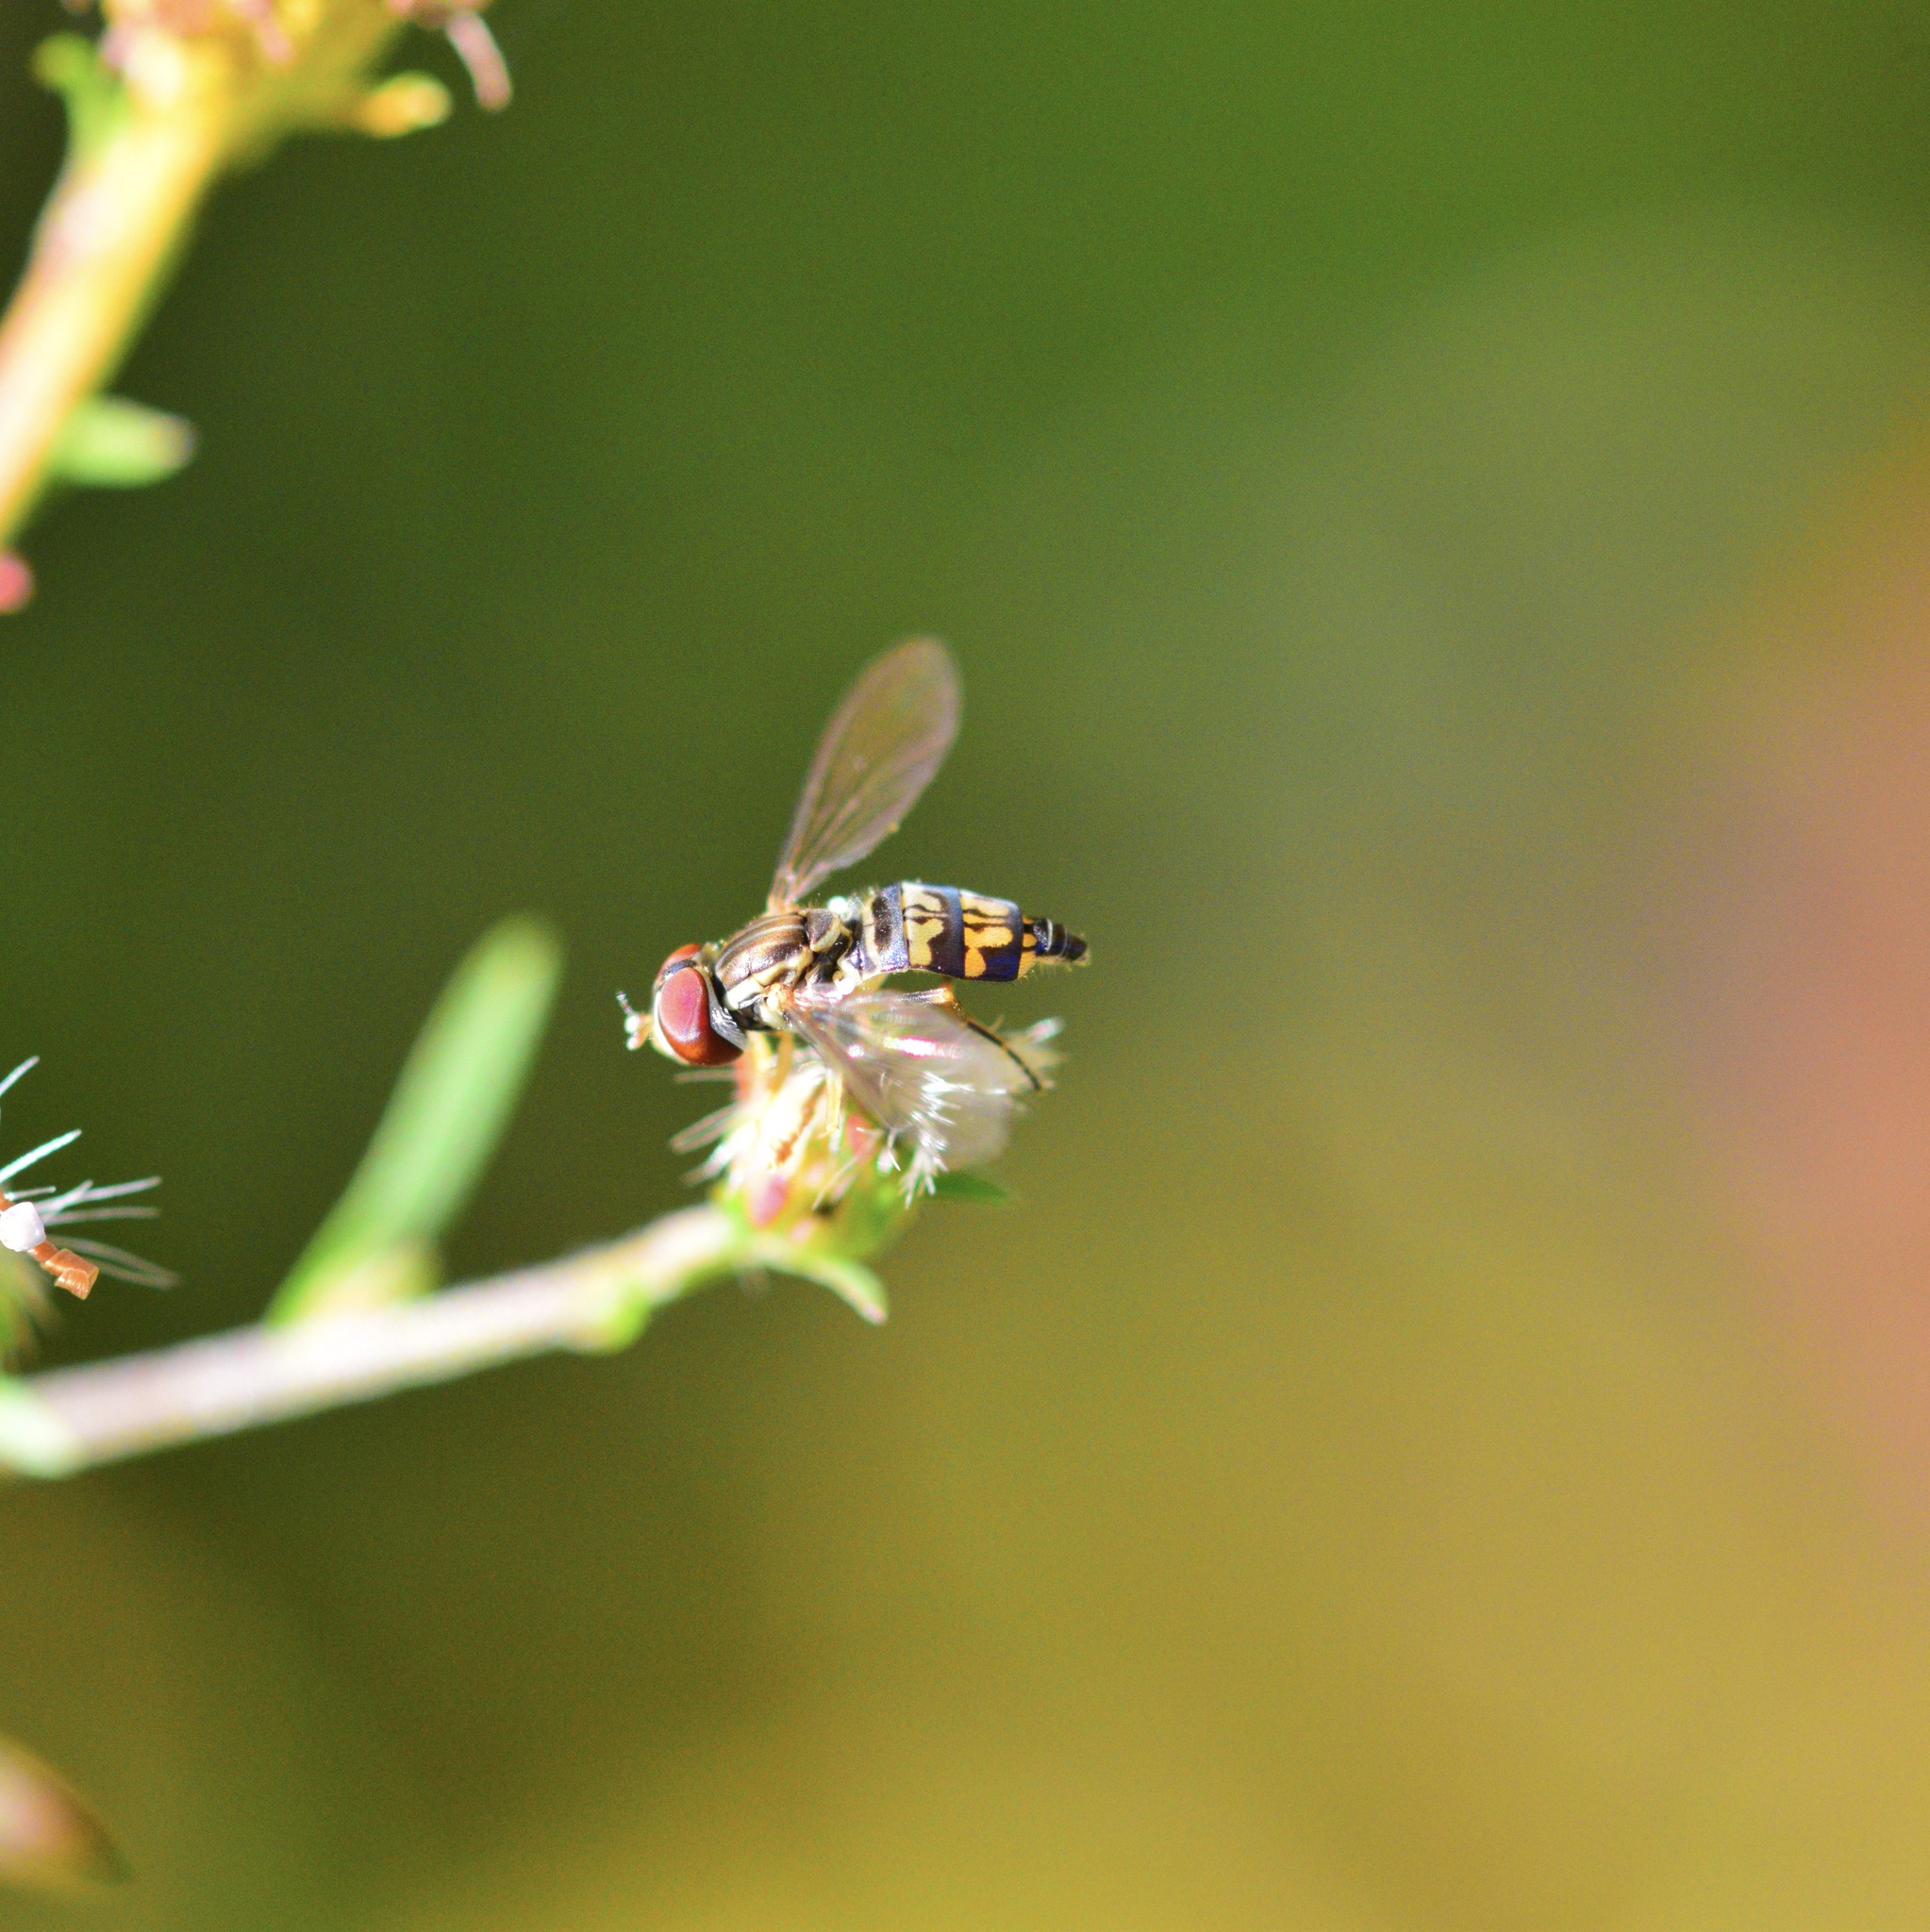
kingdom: Animalia
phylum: Arthropoda
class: Insecta
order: Diptera
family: Syrphidae
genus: Toxomerus
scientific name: Toxomerus geminatus
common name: Eastern calligrapher
